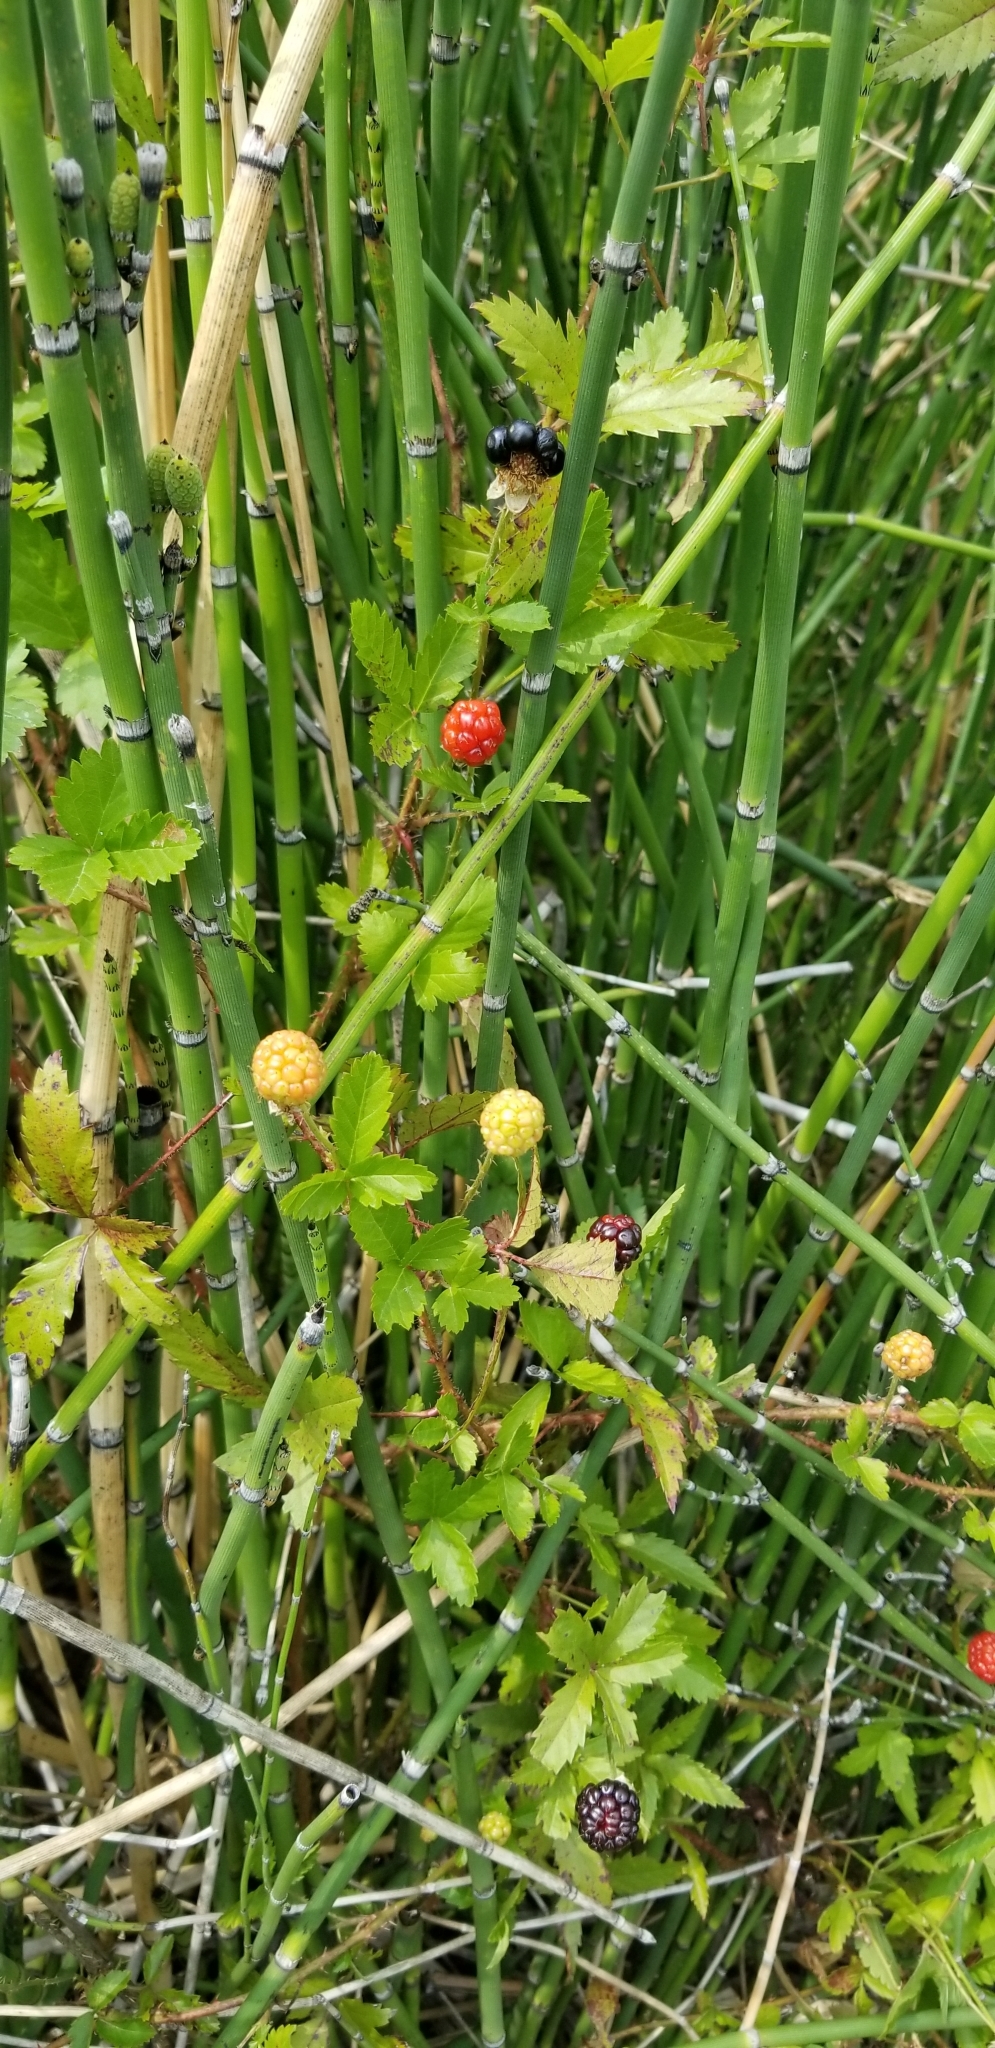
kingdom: Plantae
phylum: Tracheophyta
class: Magnoliopsida
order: Rosales
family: Rosaceae
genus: Rubus
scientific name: Rubus trivialis
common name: Southern dewberry
